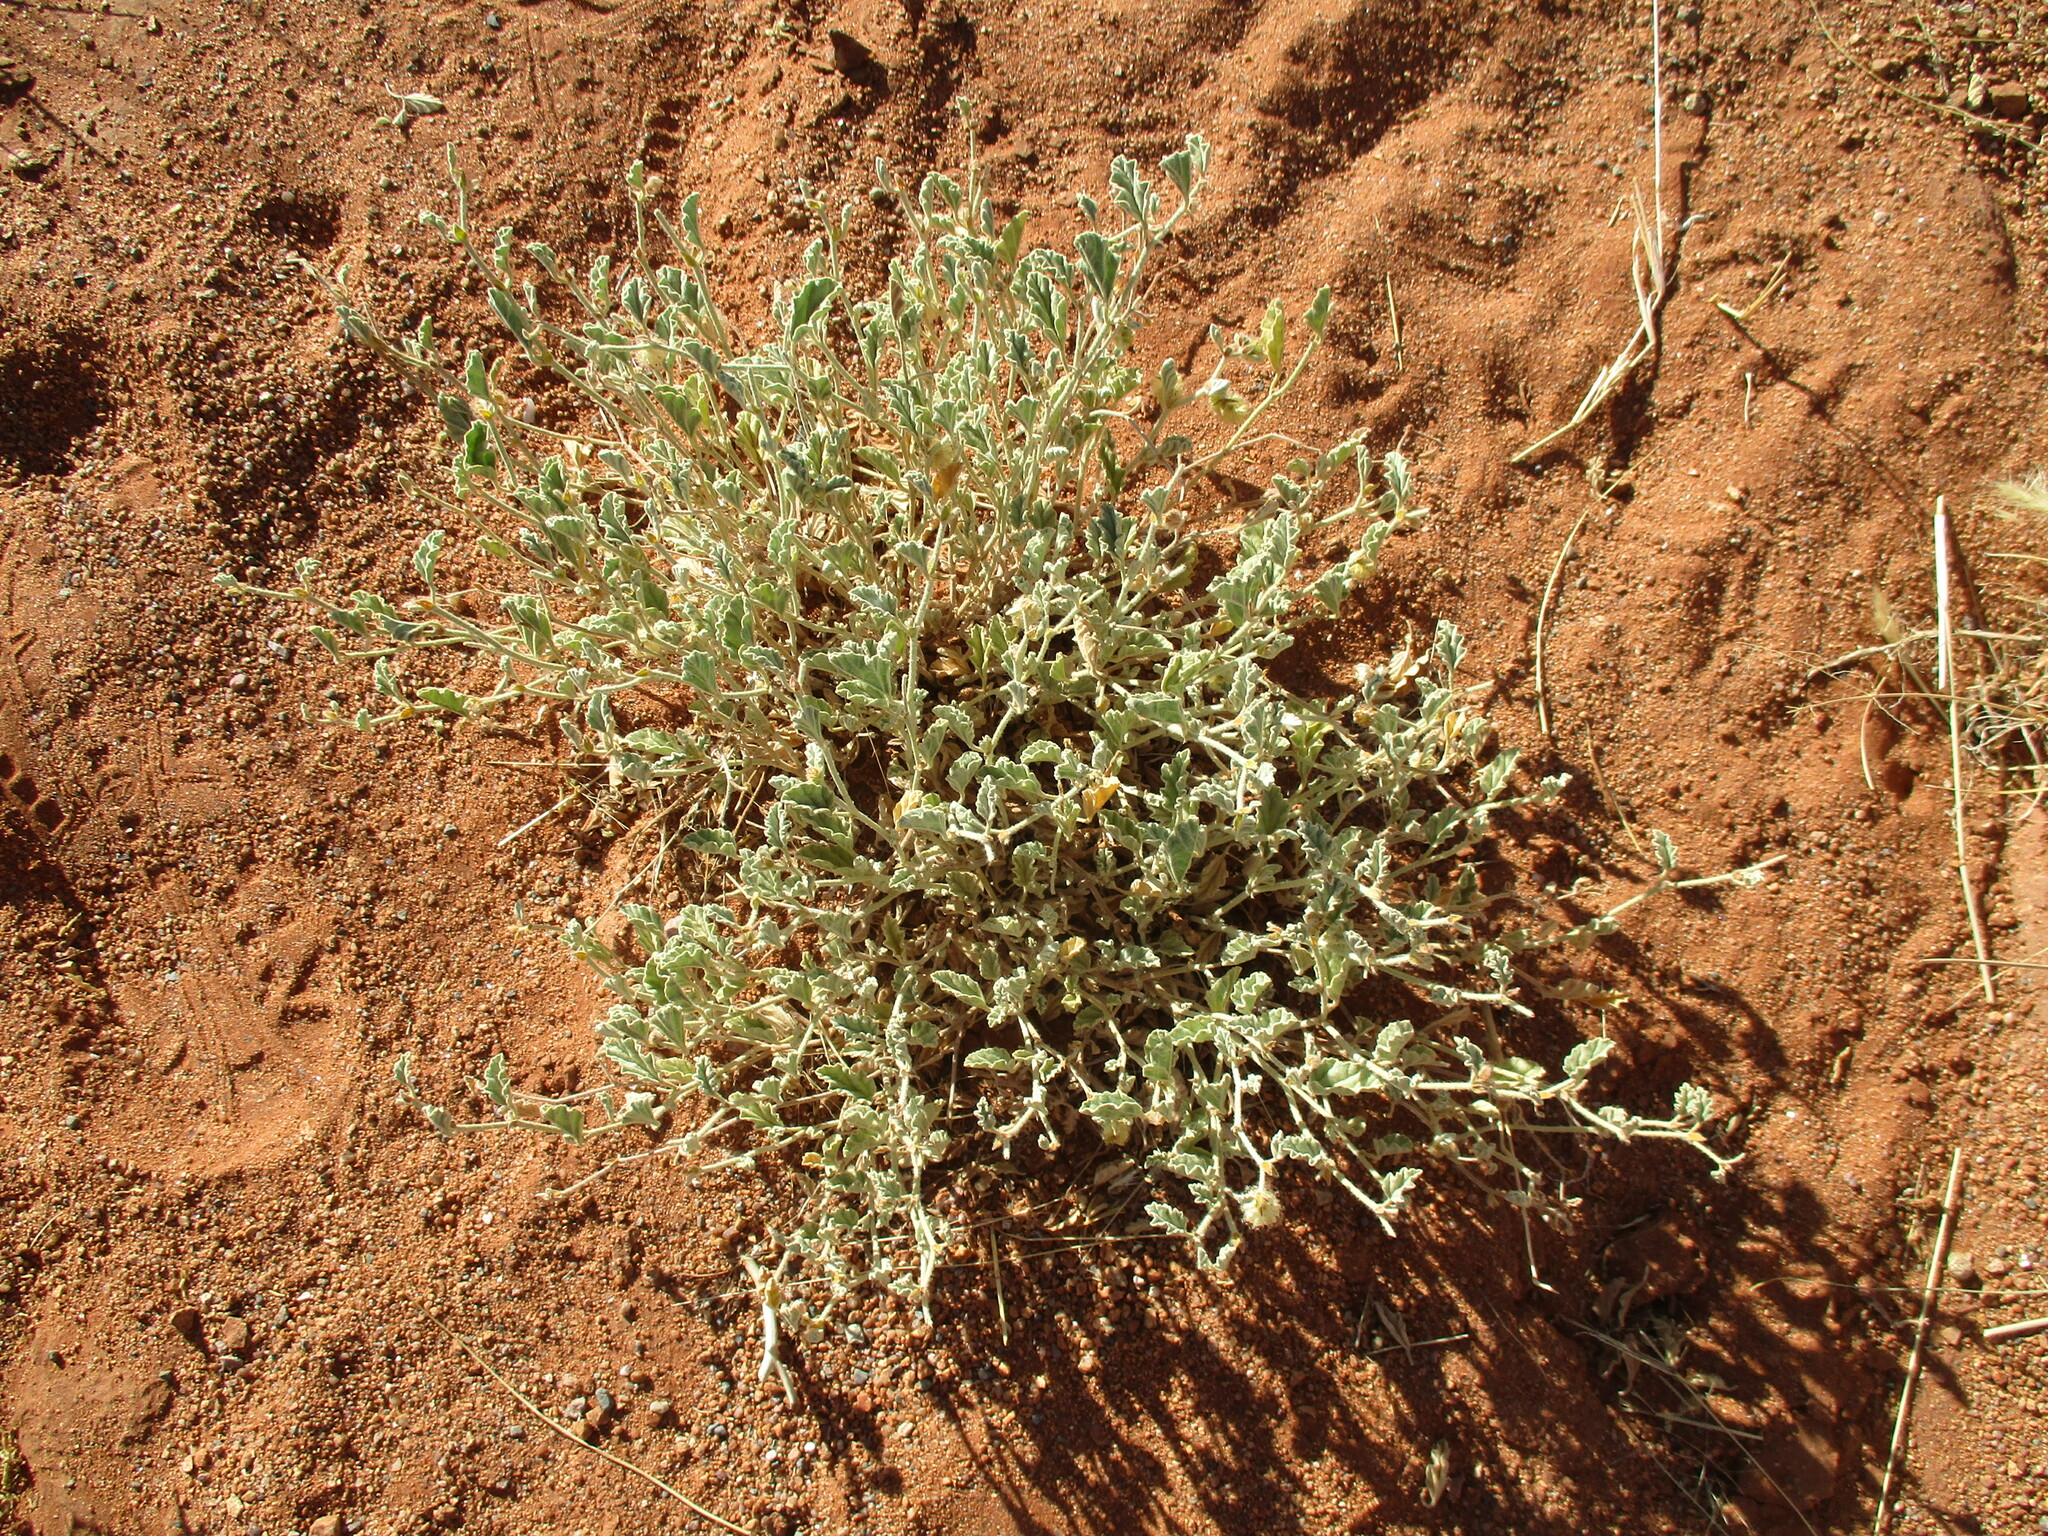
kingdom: Plantae
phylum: Tracheophyta
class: Magnoliopsida
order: Malvales
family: Malvaceae
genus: Hermannia
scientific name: Hermannia comosa
